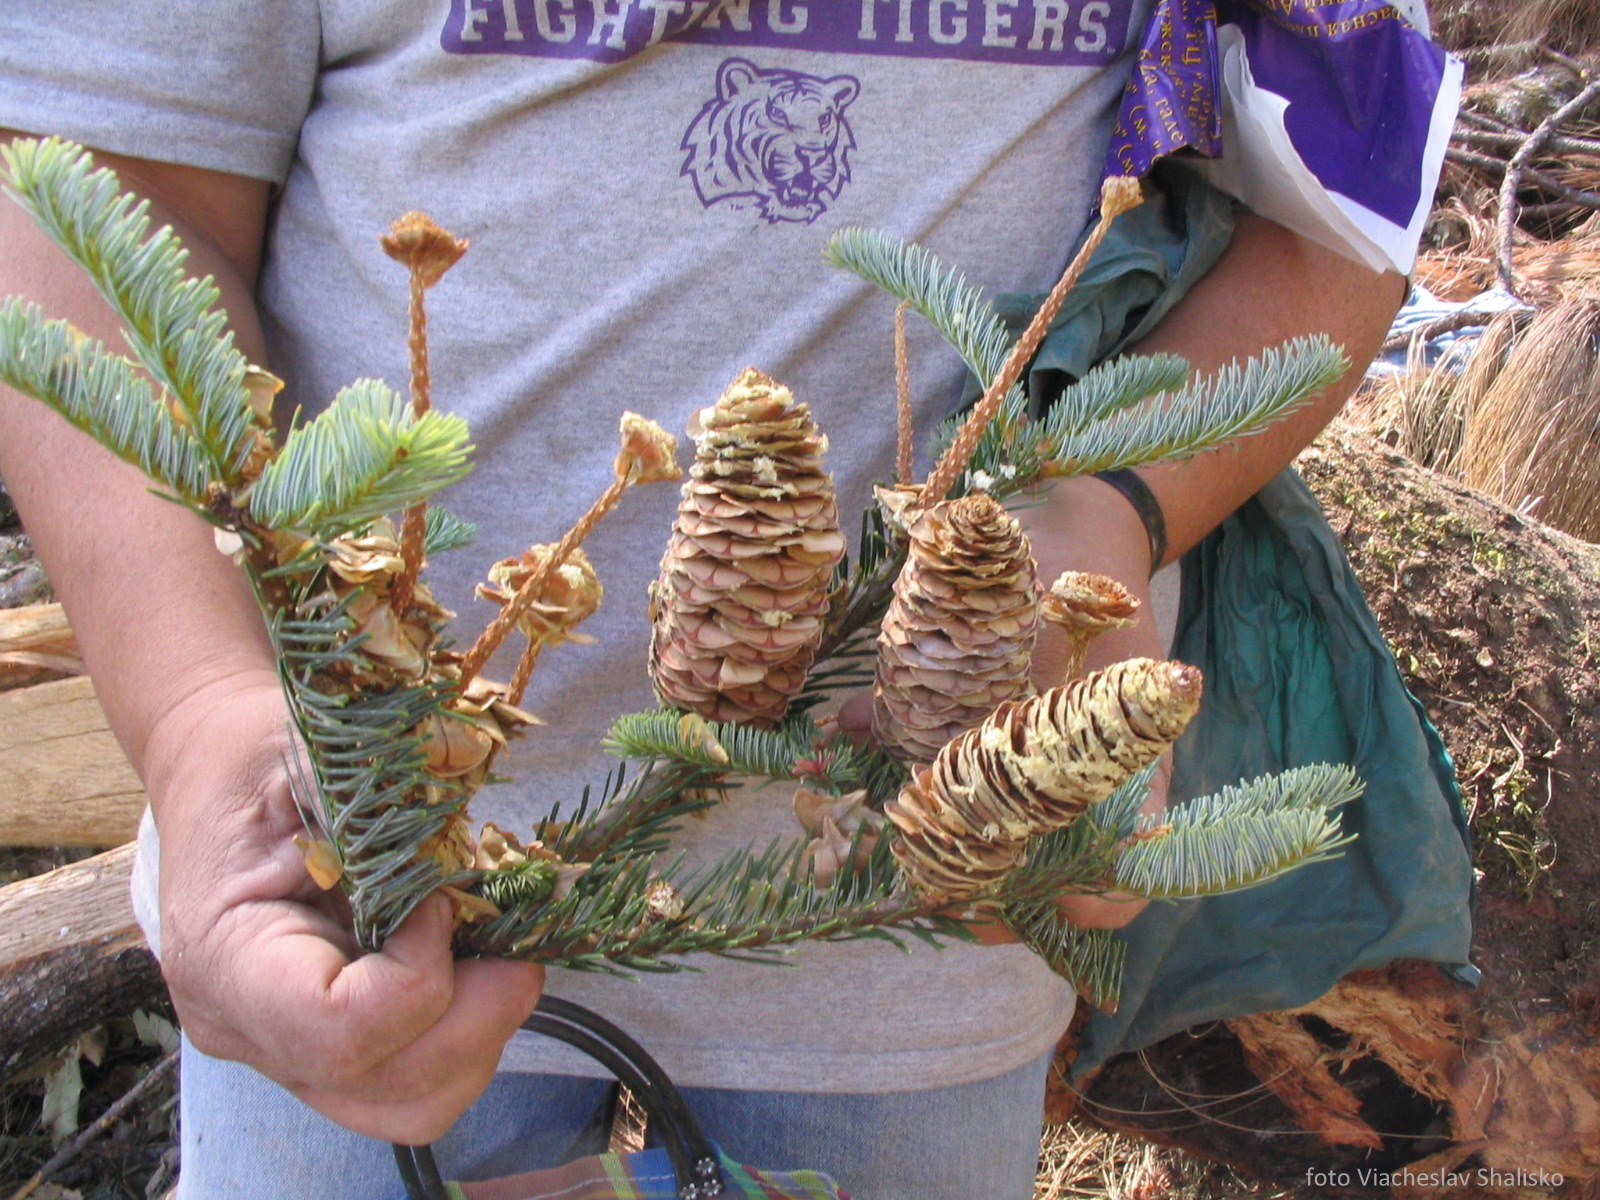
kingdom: Plantae
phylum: Tracheophyta
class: Pinopsida
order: Pinales
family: Pinaceae
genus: Abies
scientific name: Abies guatemalensis
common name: Guatemalan fir
